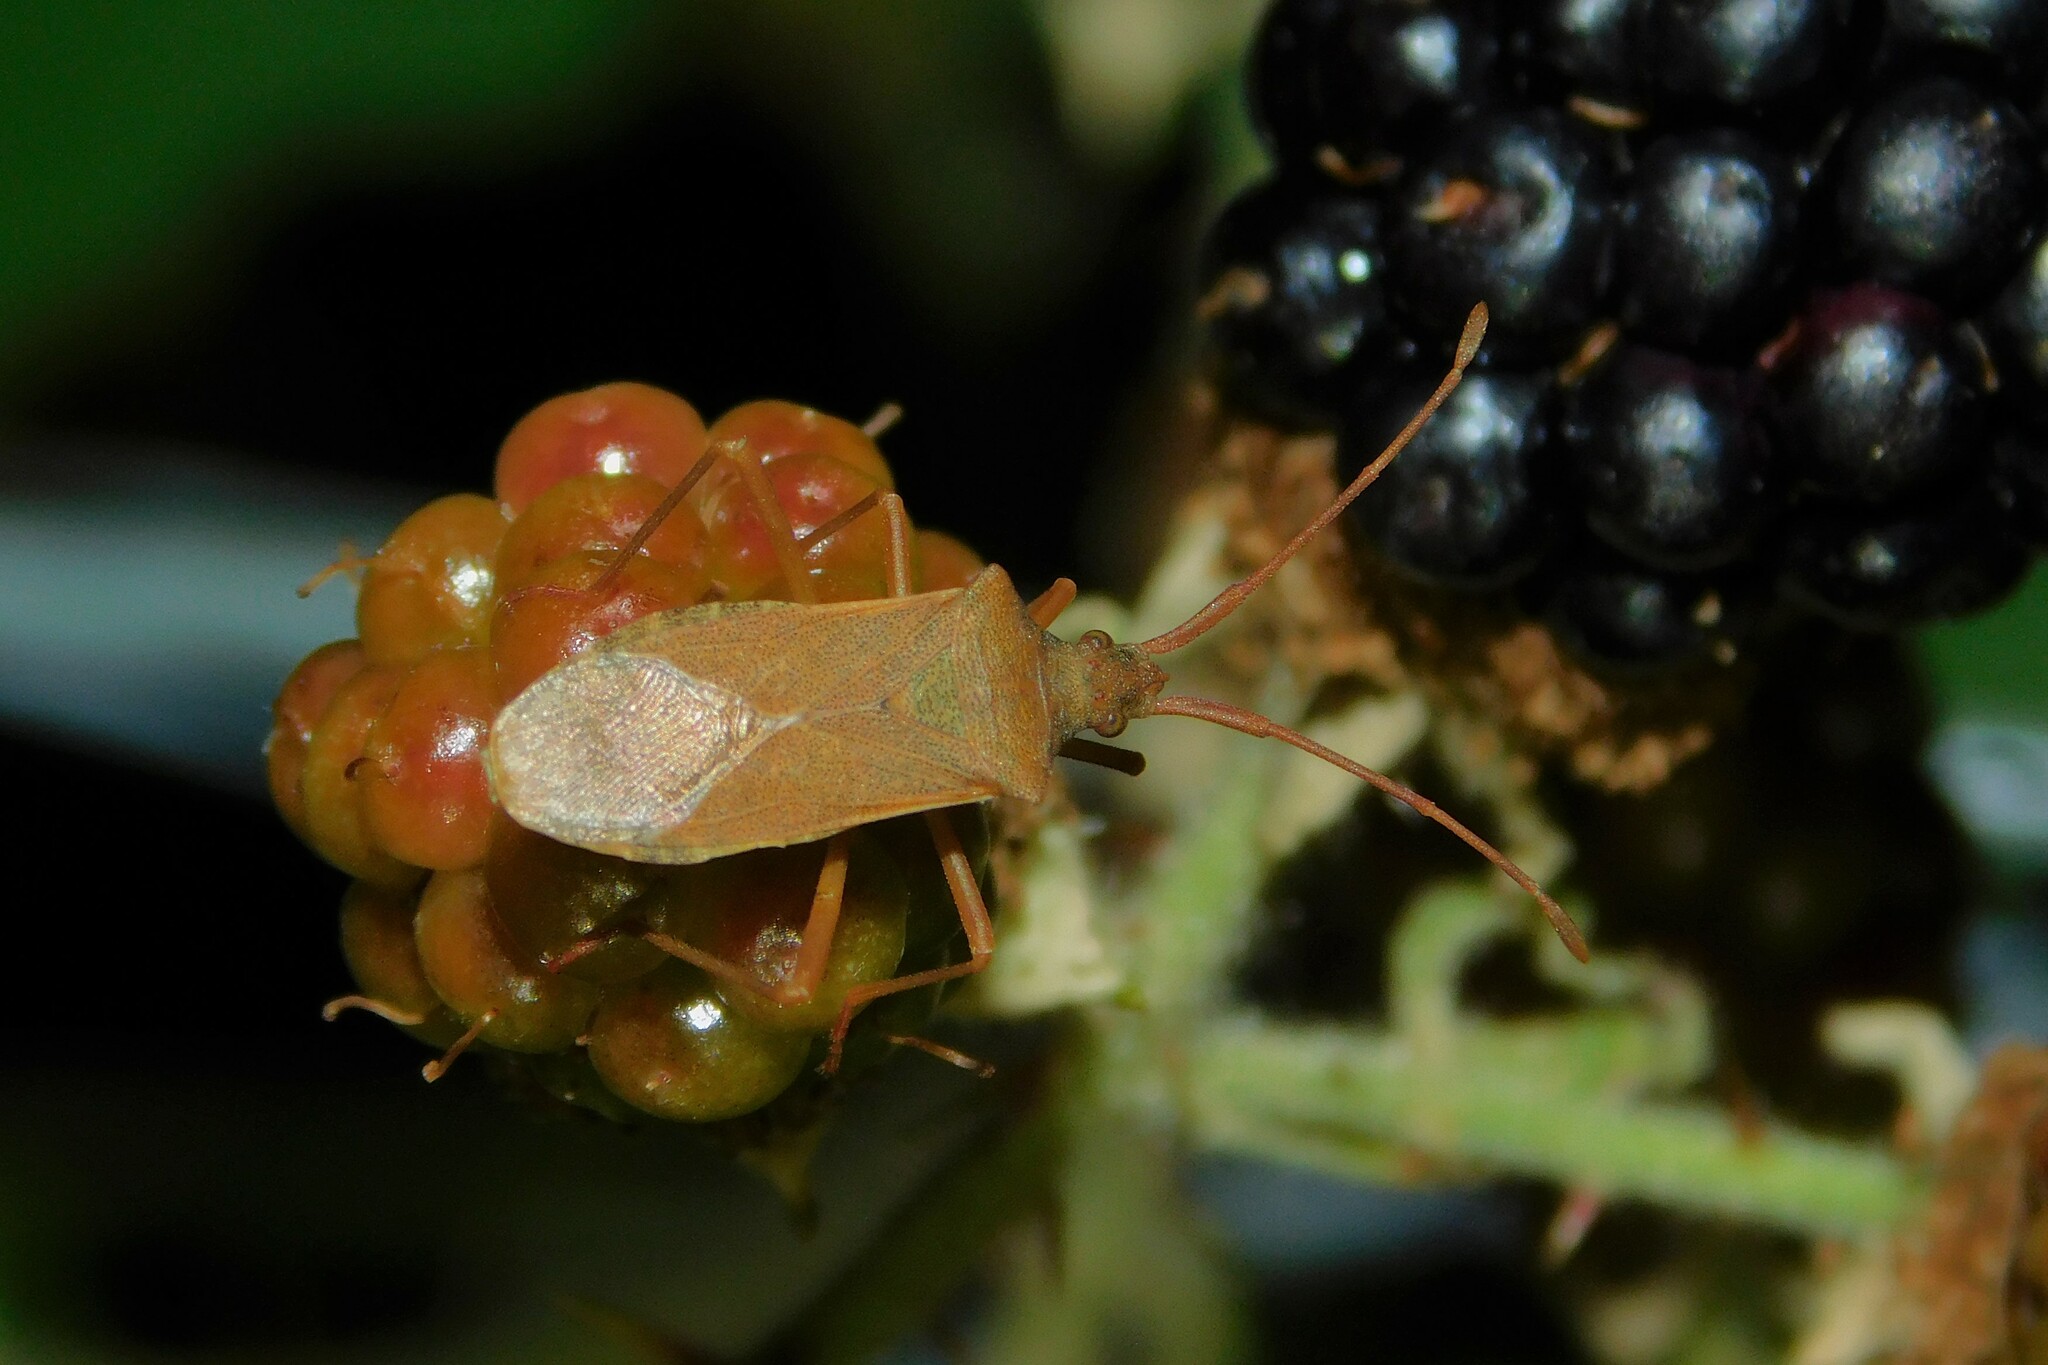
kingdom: Animalia
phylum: Arthropoda
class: Insecta
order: Hemiptera
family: Coreidae
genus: Gonocerus
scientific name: Gonocerus acuteangulatus
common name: Box bug
